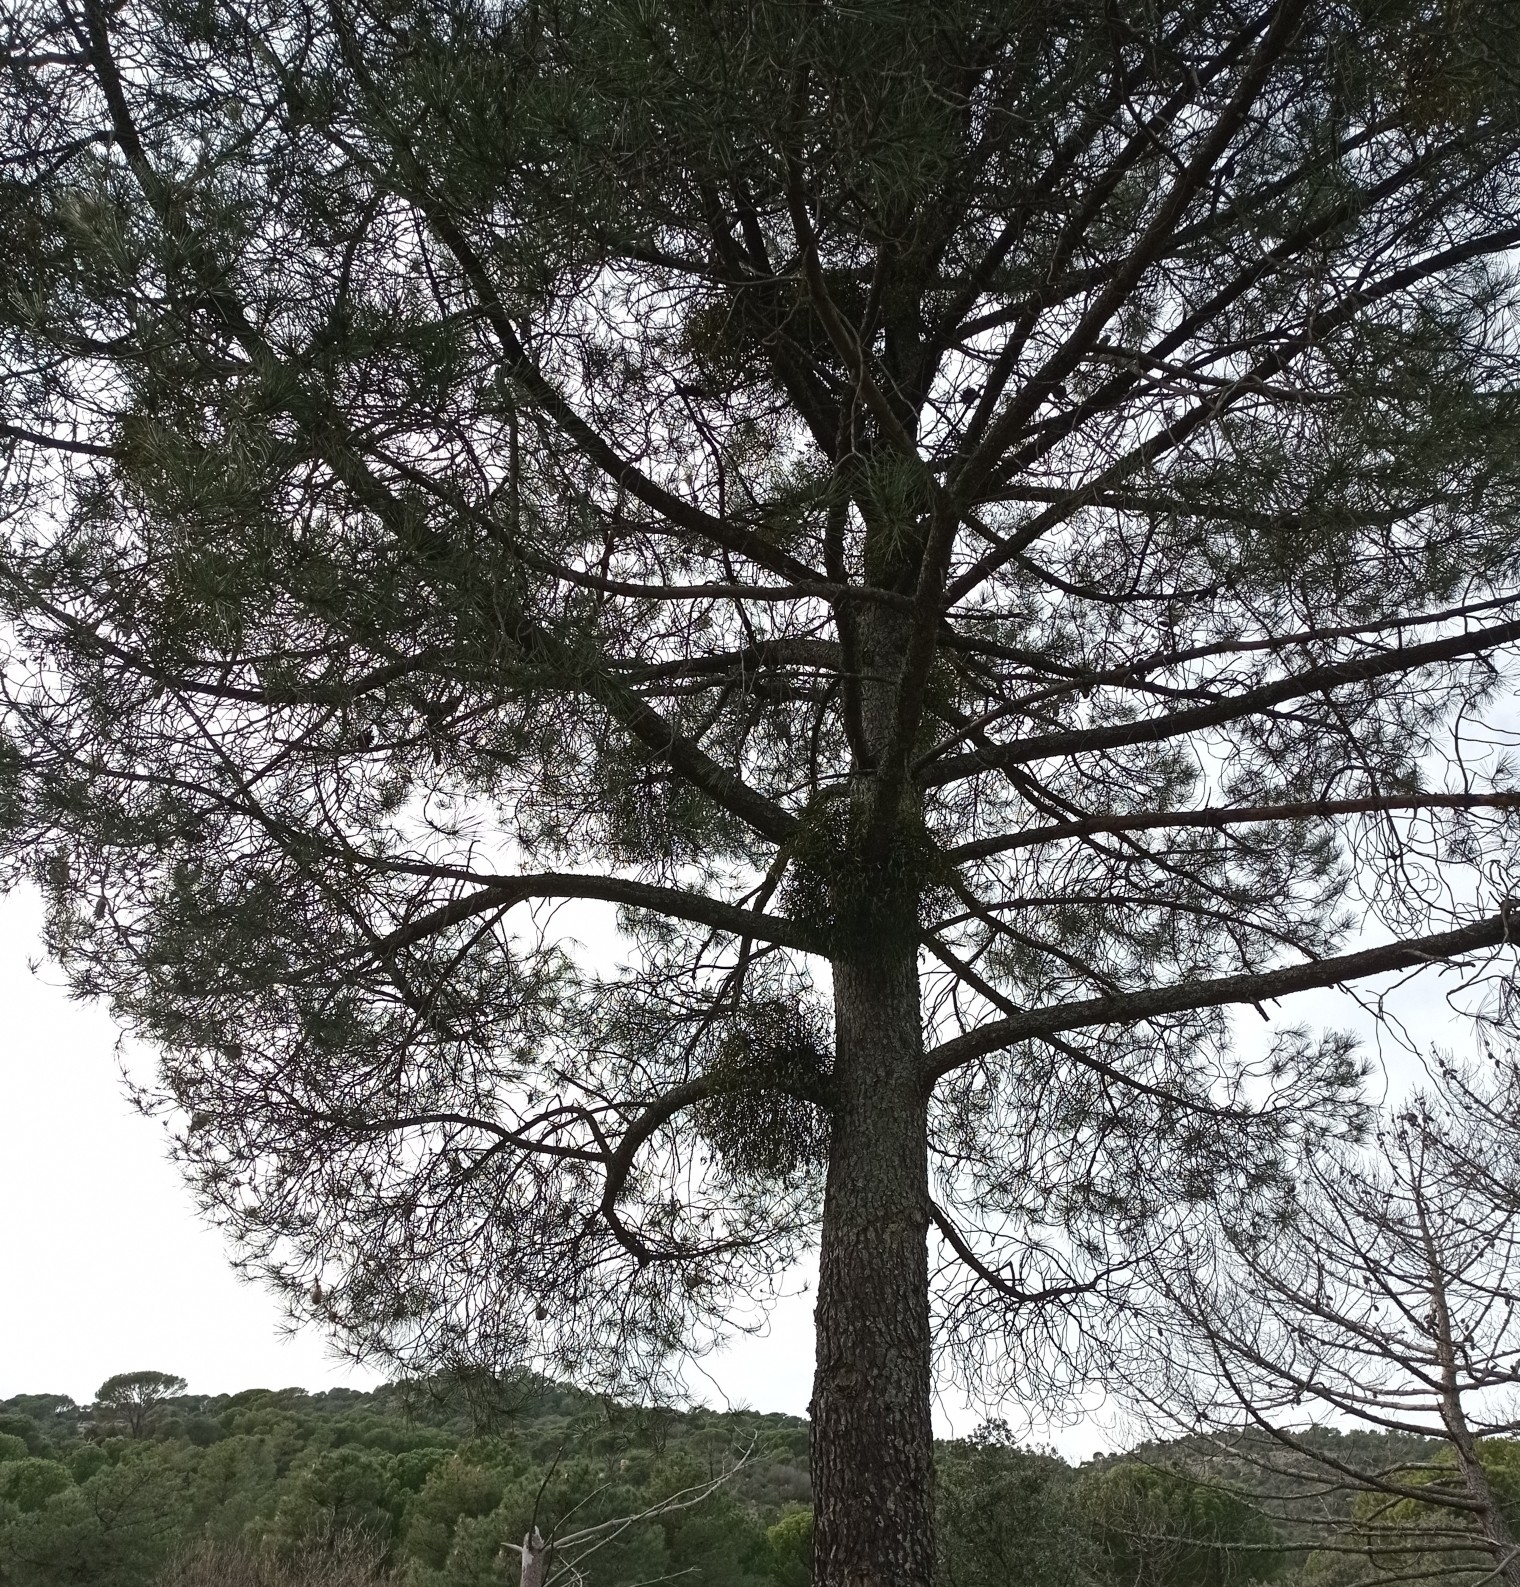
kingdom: Plantae
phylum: Tracheophyta
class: Magnoliopsida
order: Santalales
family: Viscaceae
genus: Viscum
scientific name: Viscum album
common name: Mistletoe
